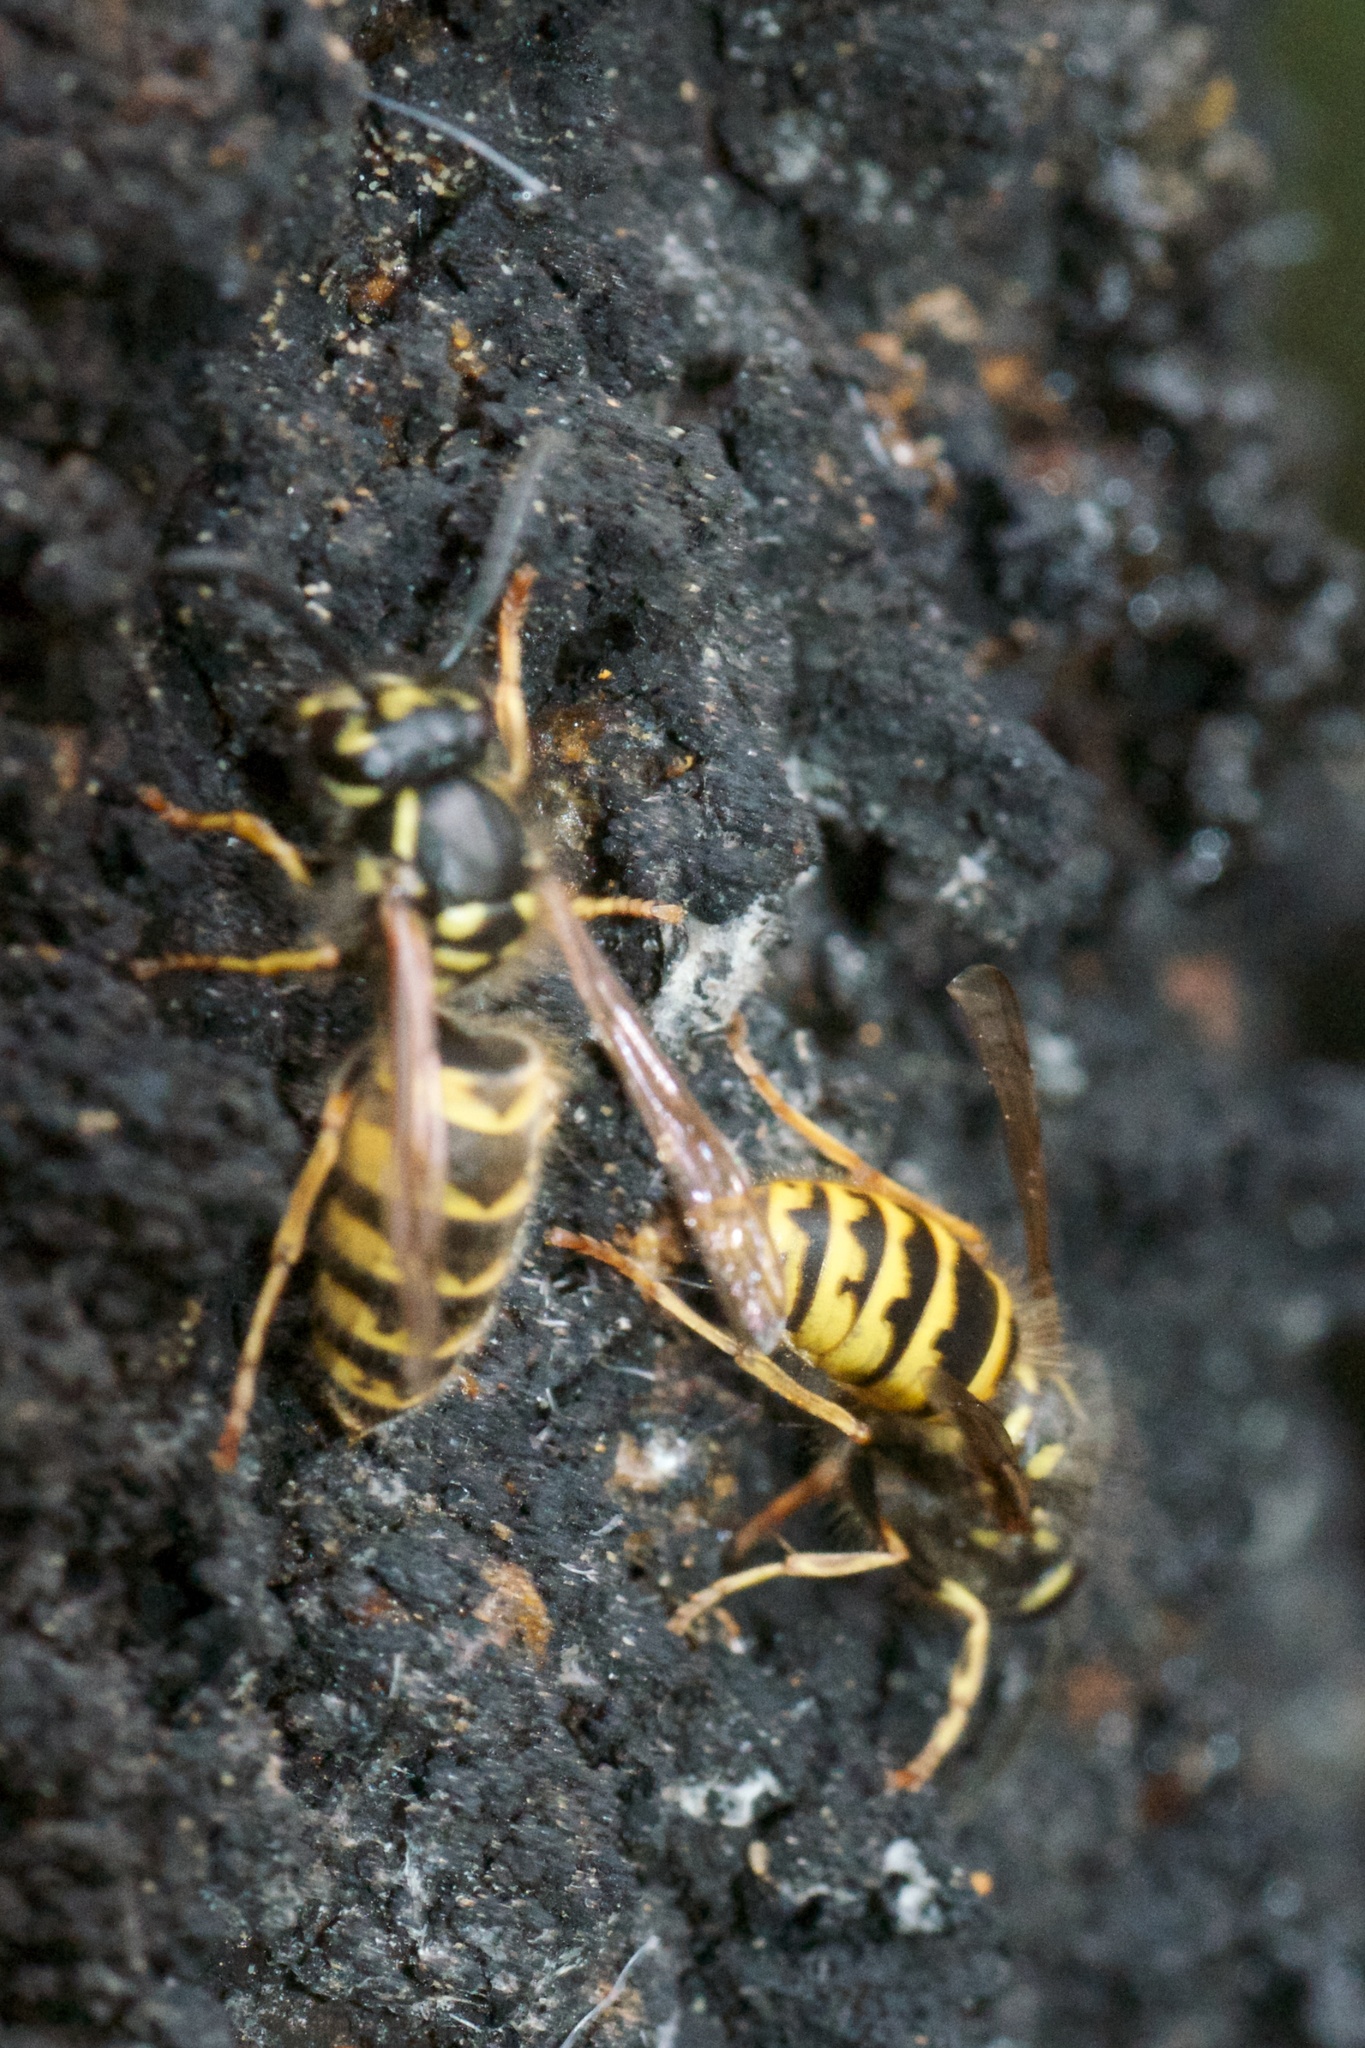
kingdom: Animalia
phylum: Arthropoda
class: Insecta
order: Hymenoptera
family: Vespidae
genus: Vespula
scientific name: Vespula vulgaris
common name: Common wasp
